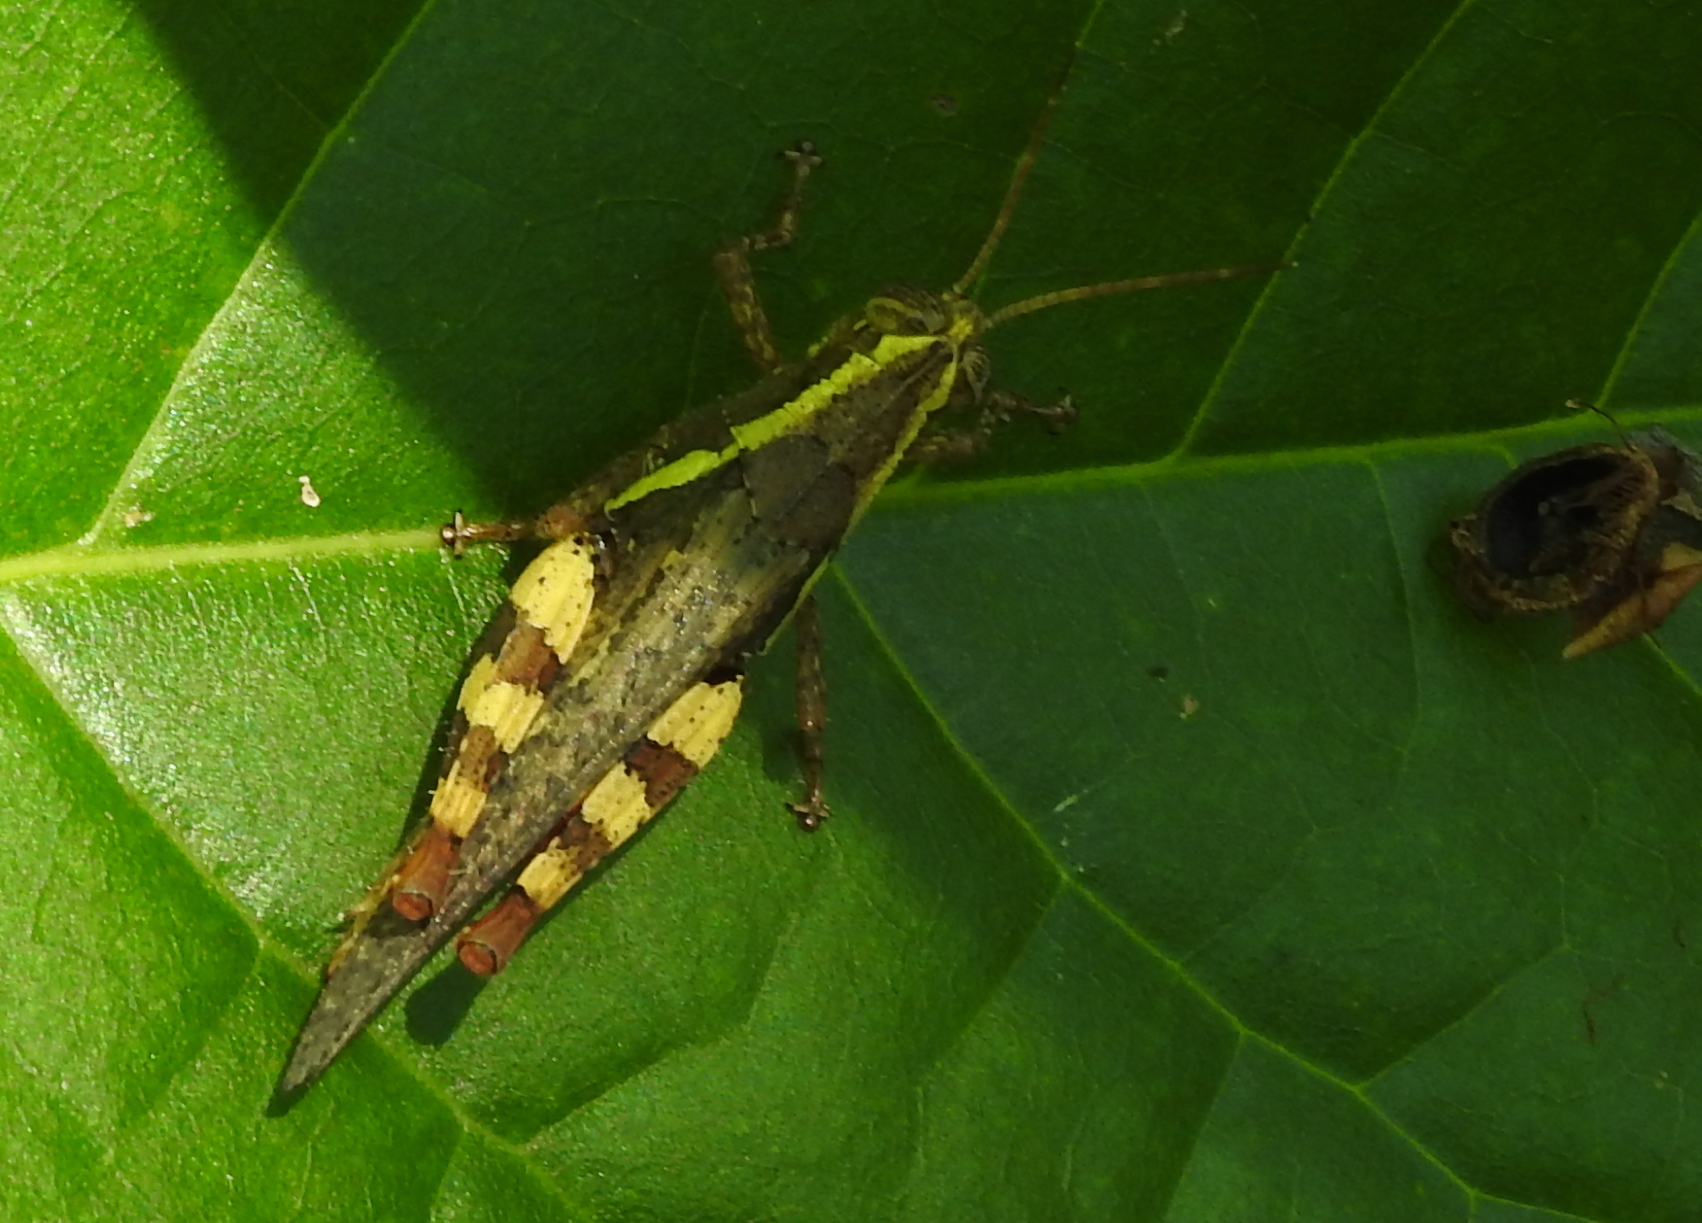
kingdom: Animalia
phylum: Arthropoda
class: Insecta
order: Orthoptera
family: Acrididae
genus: Xenocatantops
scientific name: Xenocatantops humile
